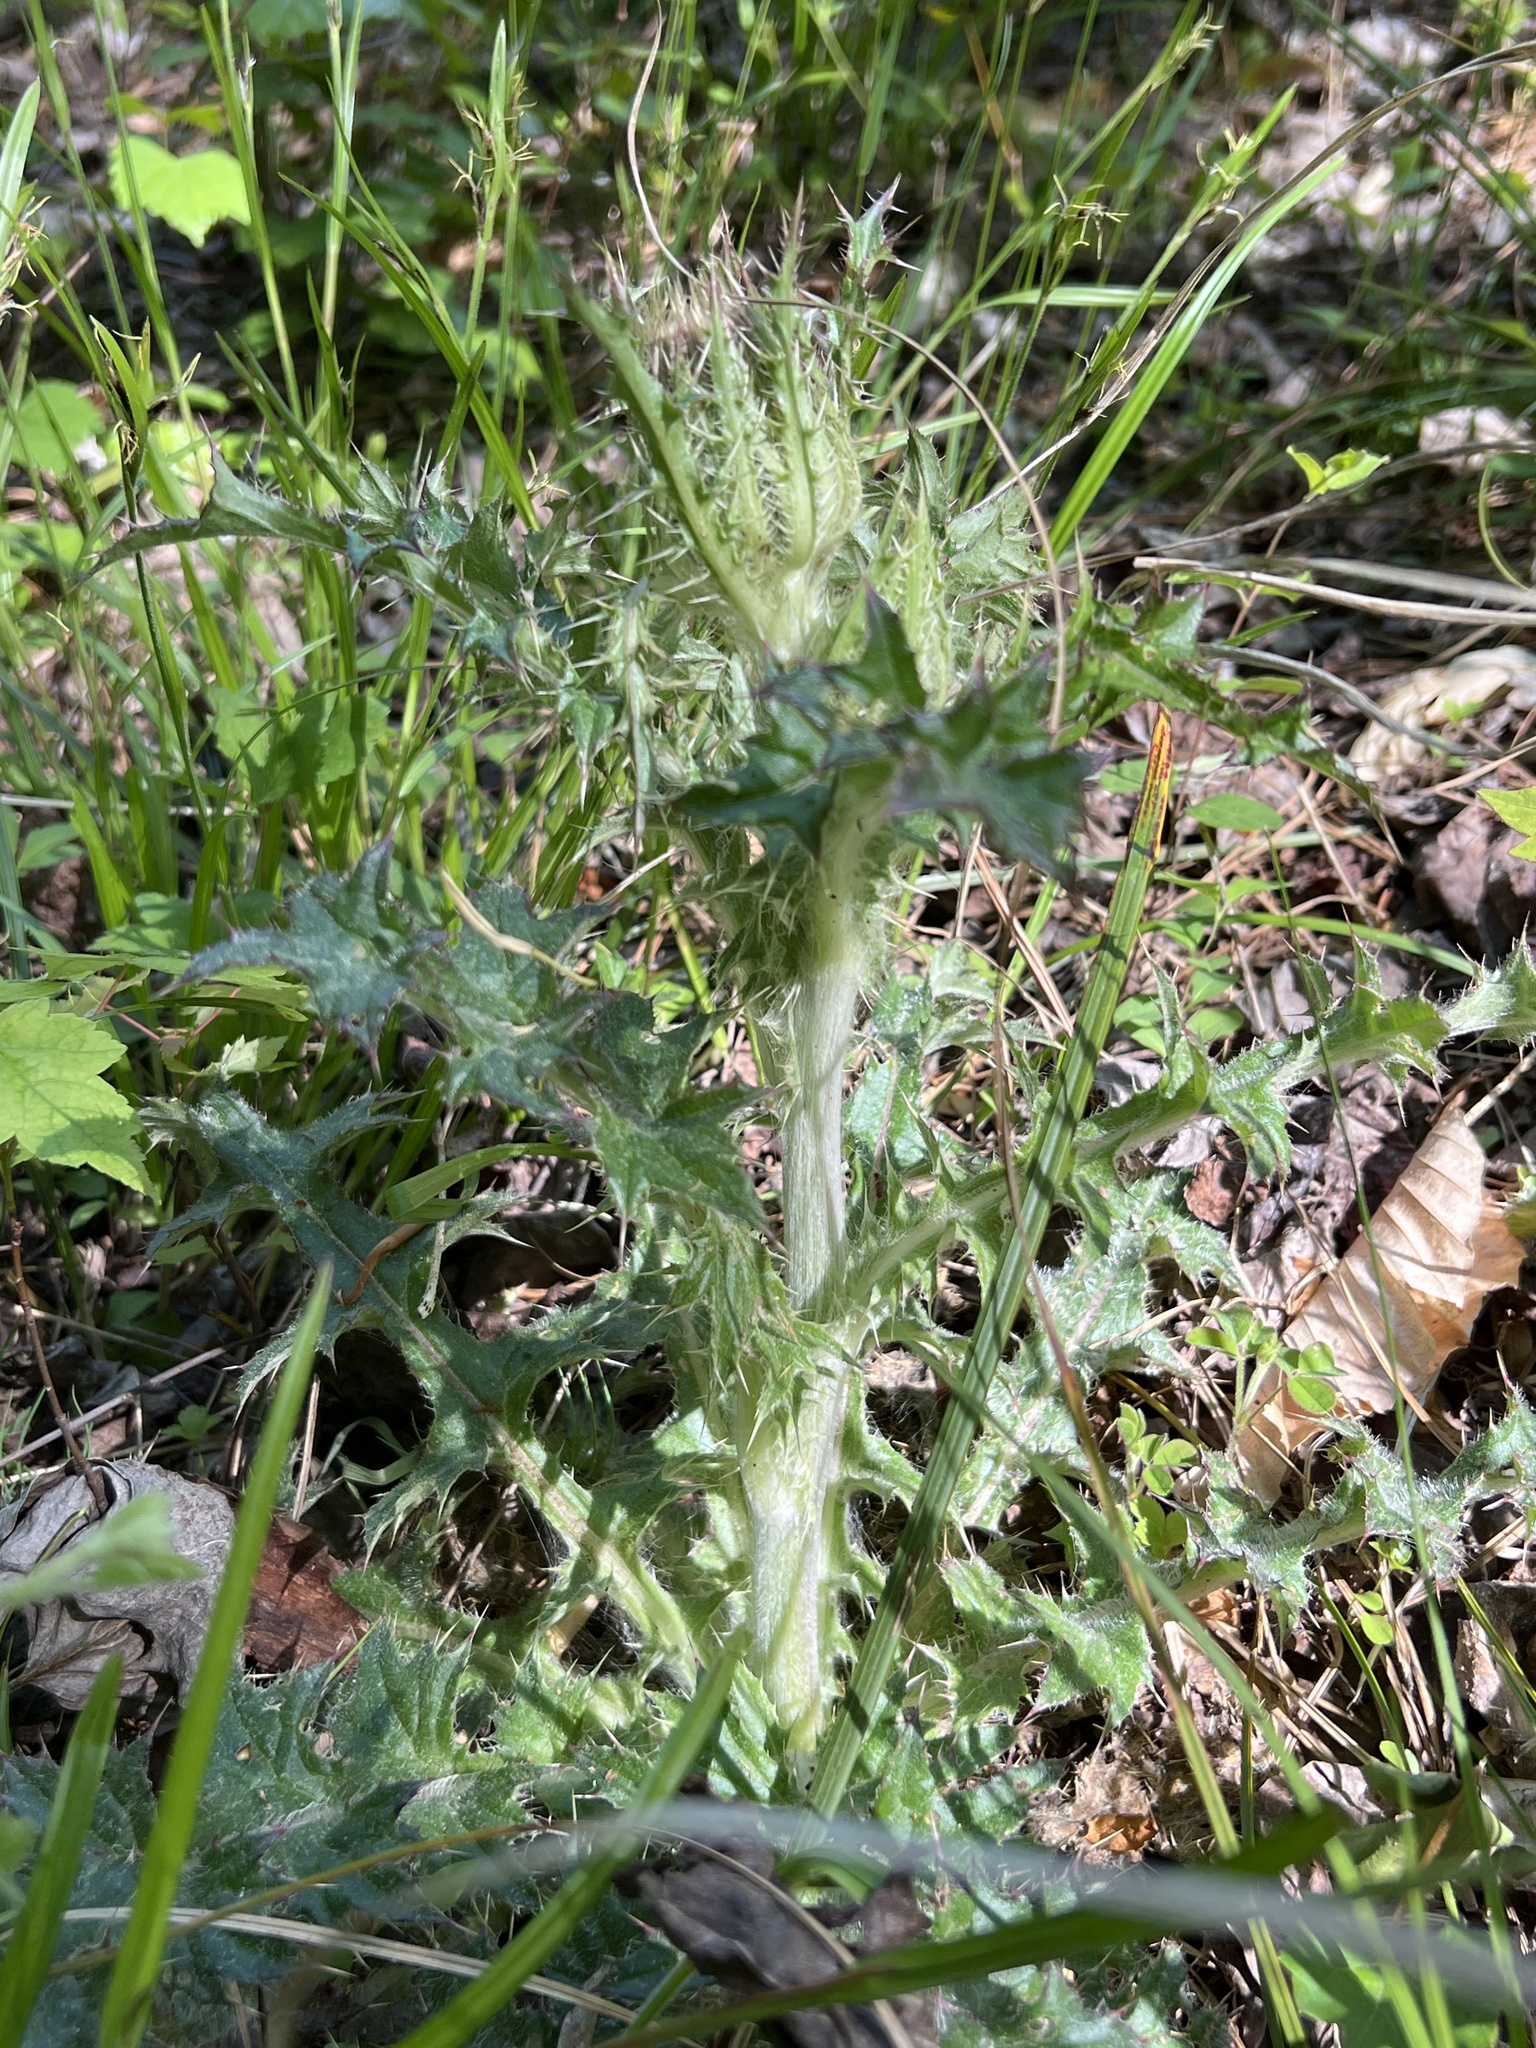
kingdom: Plantae
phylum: Tracheophyta
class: Magnoliopsida
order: Asterales
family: Asteraceae
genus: Cirsium
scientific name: Cirsium horridulum
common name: Bristly thistle
